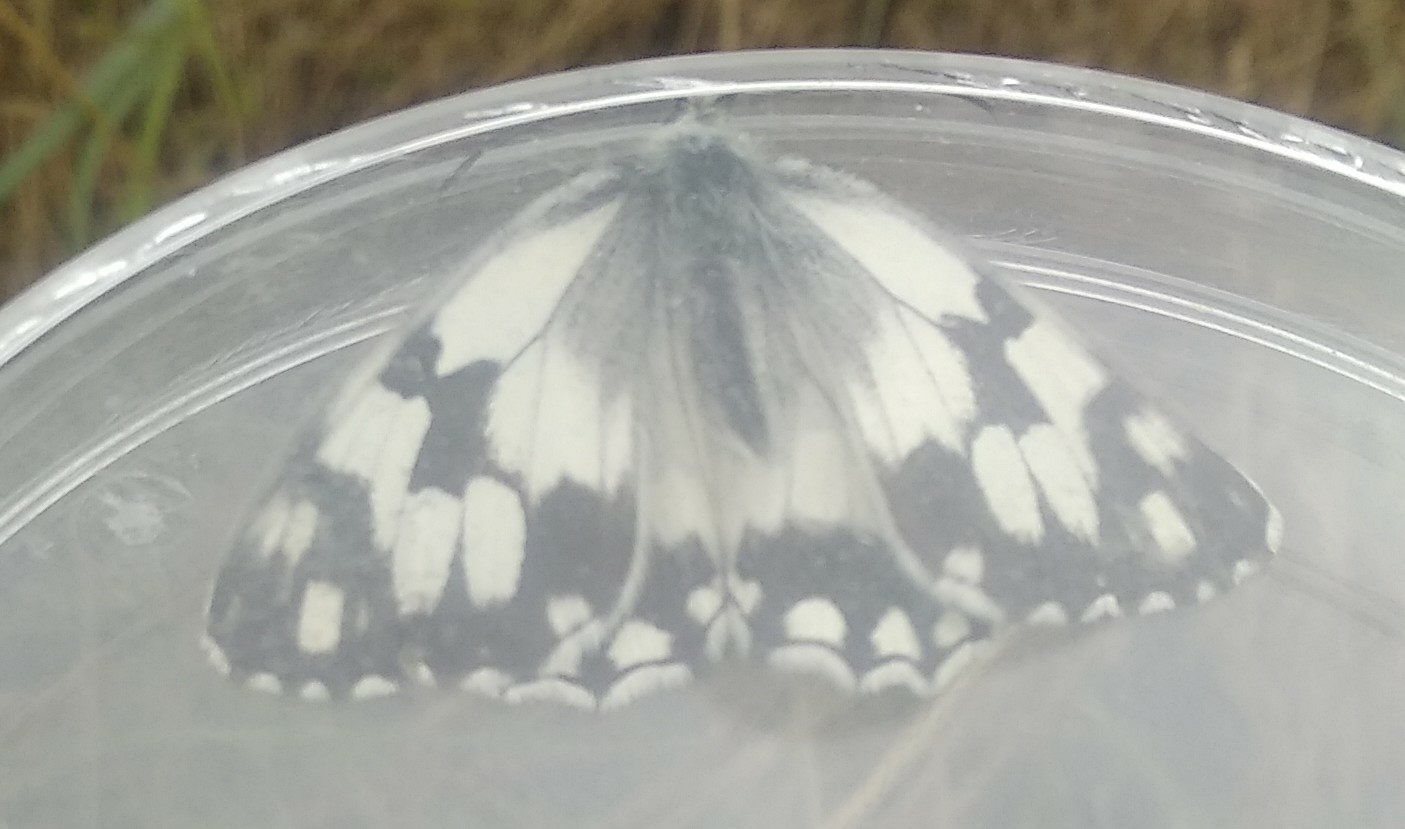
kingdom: Animalia
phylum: Arthropoda
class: Insecta
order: Lepidoptera
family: Nymphalidae
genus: Melanargia
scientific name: Melanargia lachesis
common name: Iberian marbled white
